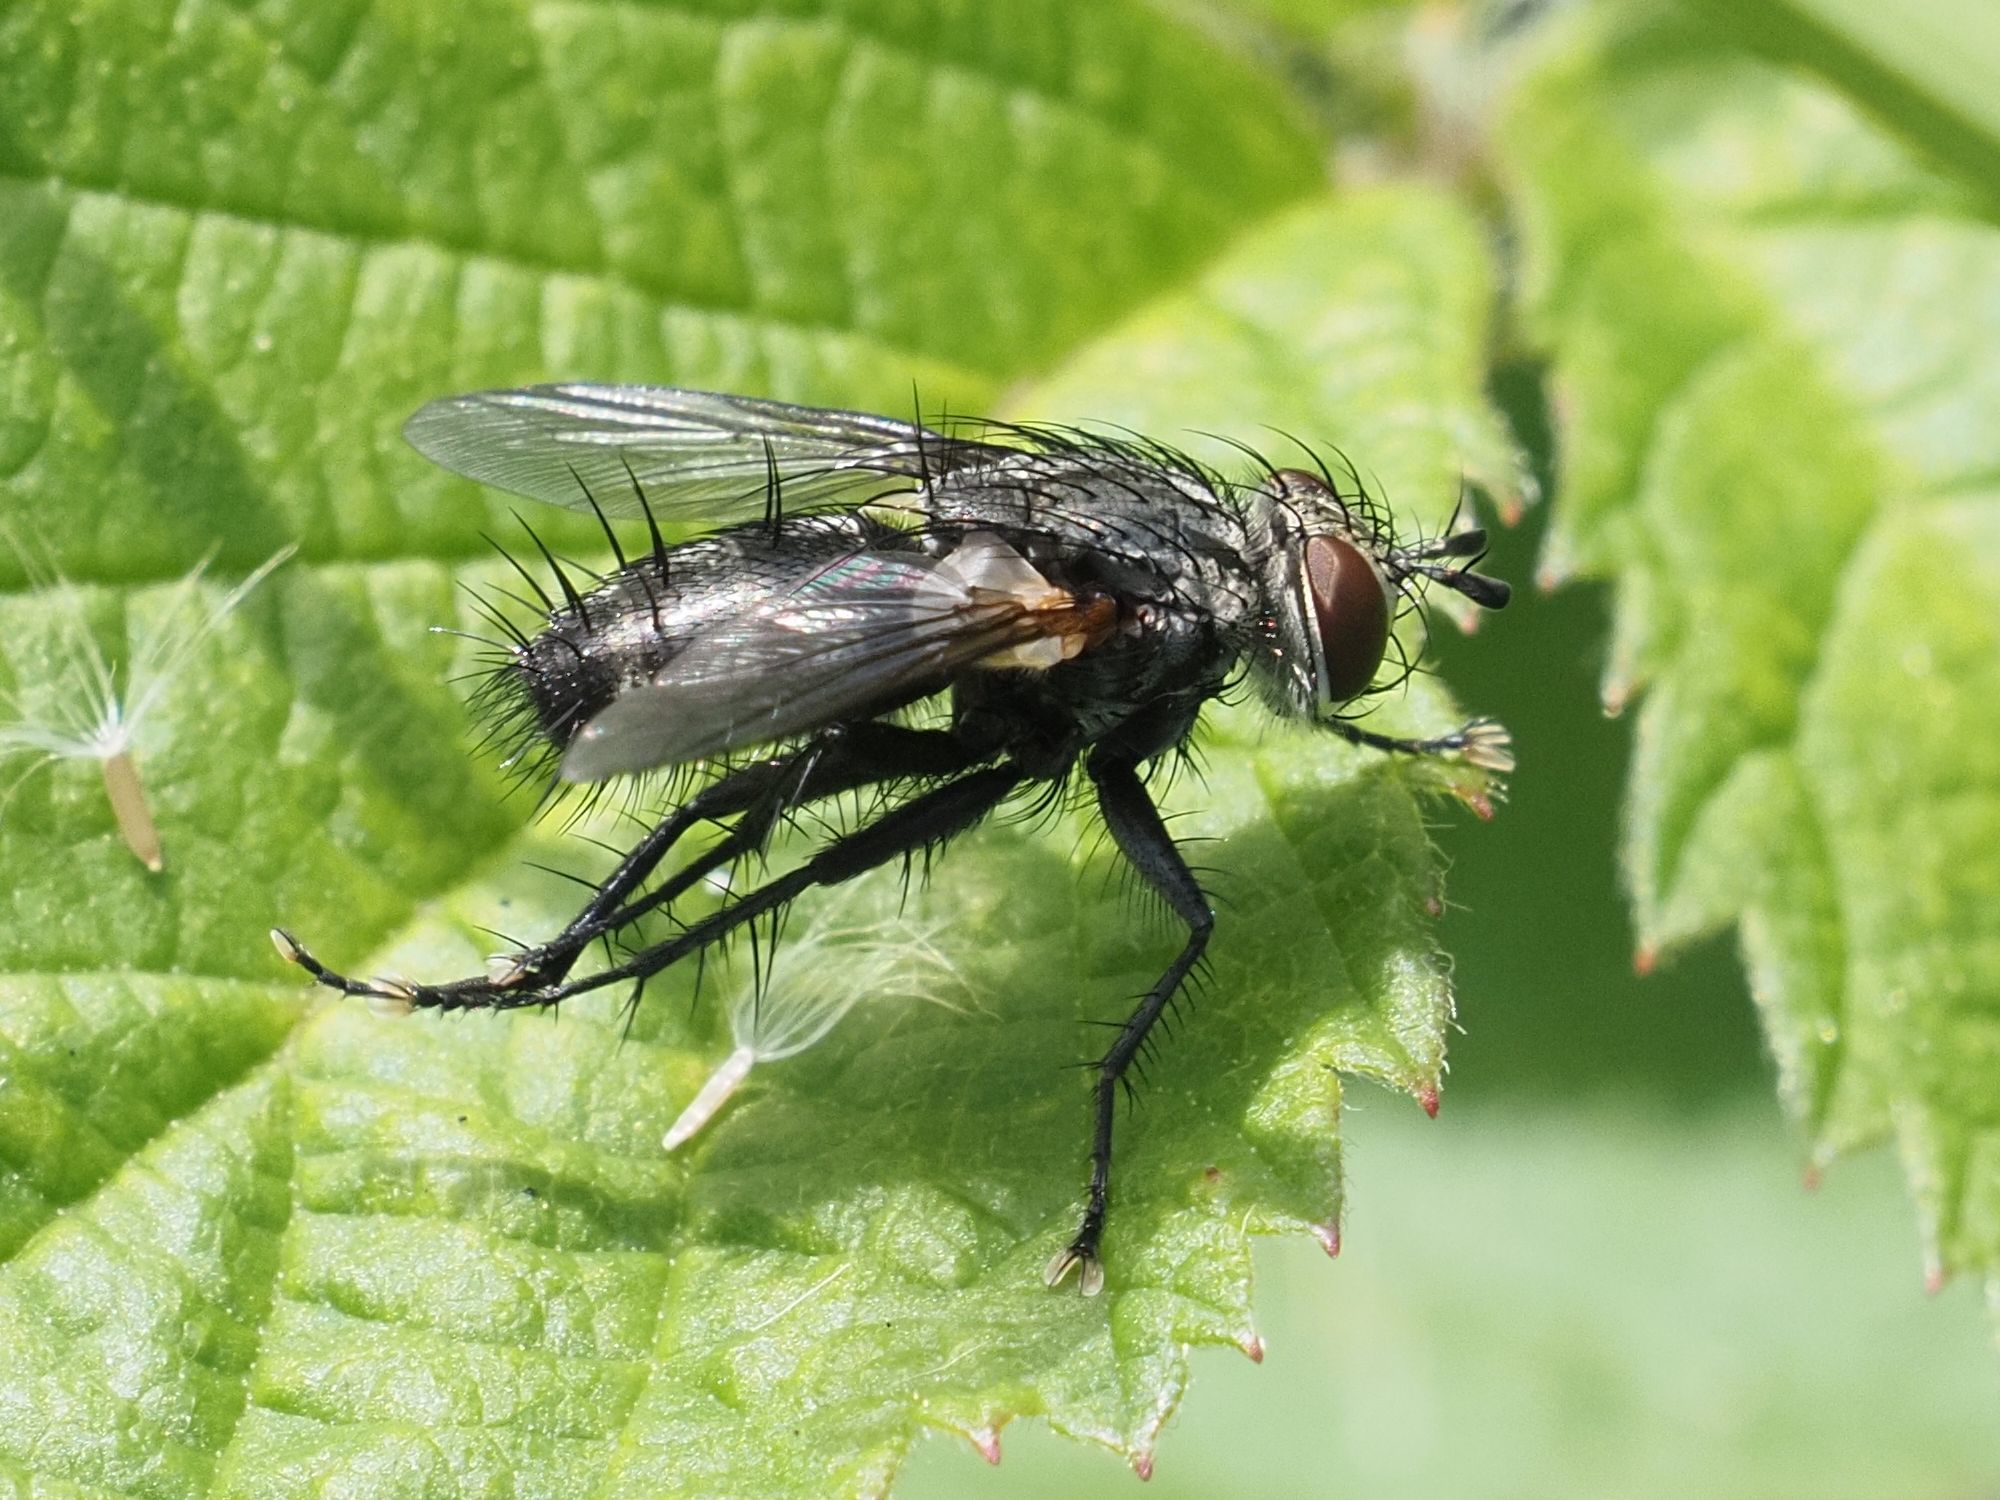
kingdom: Animalia
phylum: Arthropoda
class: Insecta
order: Diptera
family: Tachinidae
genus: Voria
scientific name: Voria ruralis
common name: Parasitic fly
